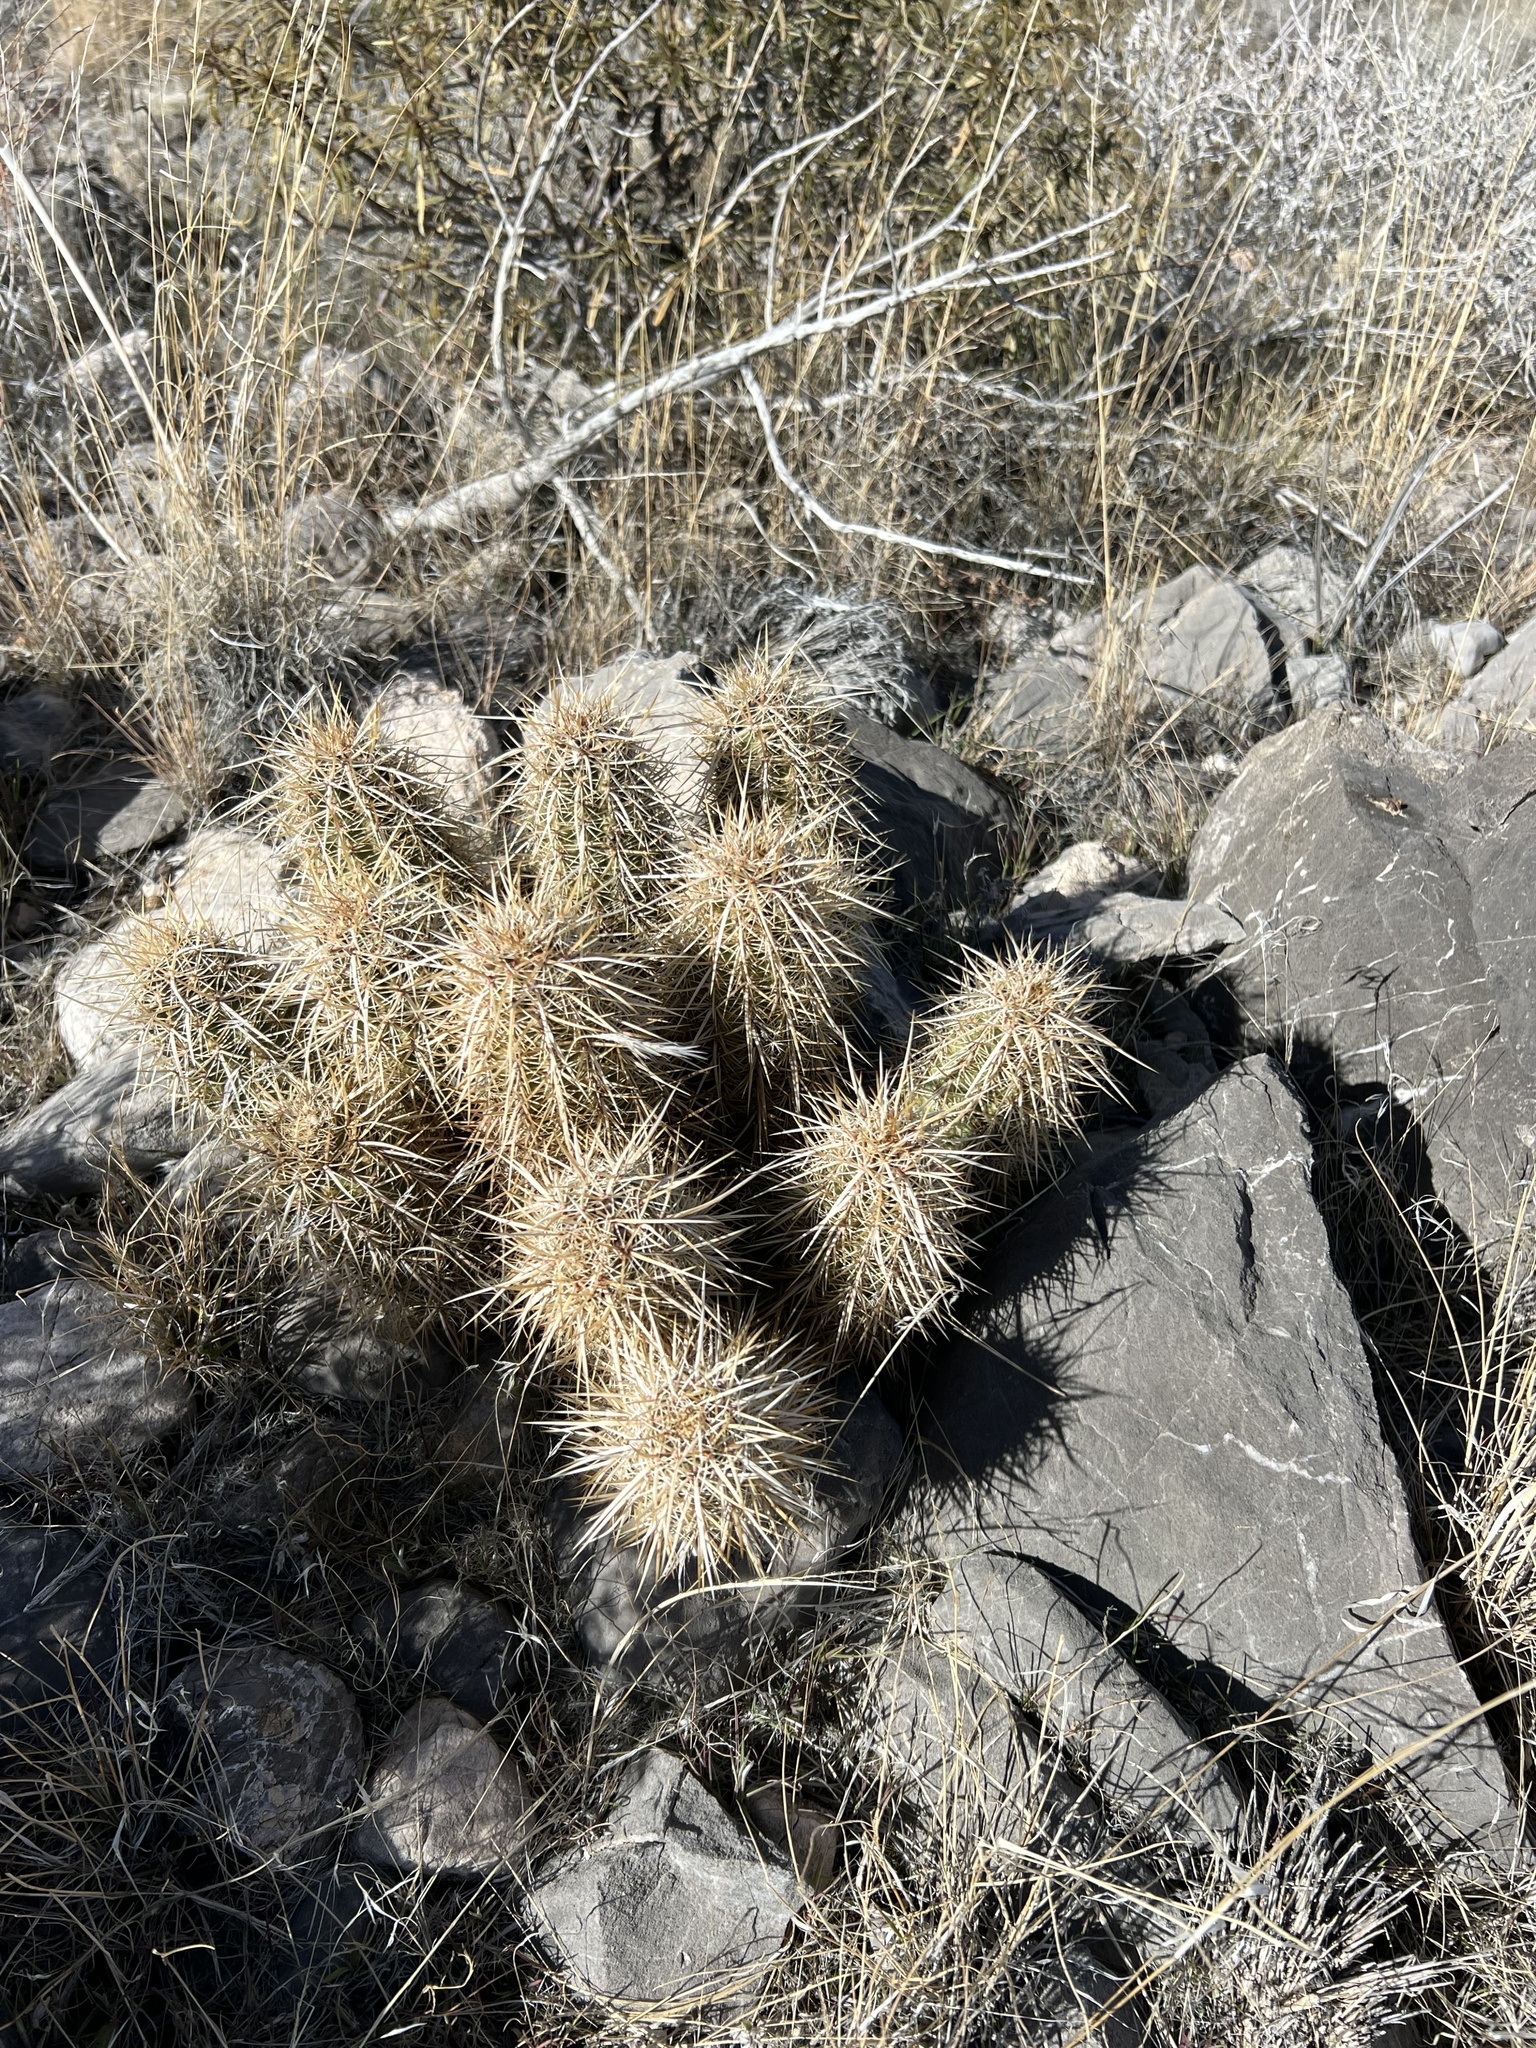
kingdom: Plantae
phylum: Tracheophyta
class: Magnoliopsida
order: Caryophyllales
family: Cactaceae
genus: Echinocereus
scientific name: Echinocereus engelmannii
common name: Engelmann's hedgehog cactus
